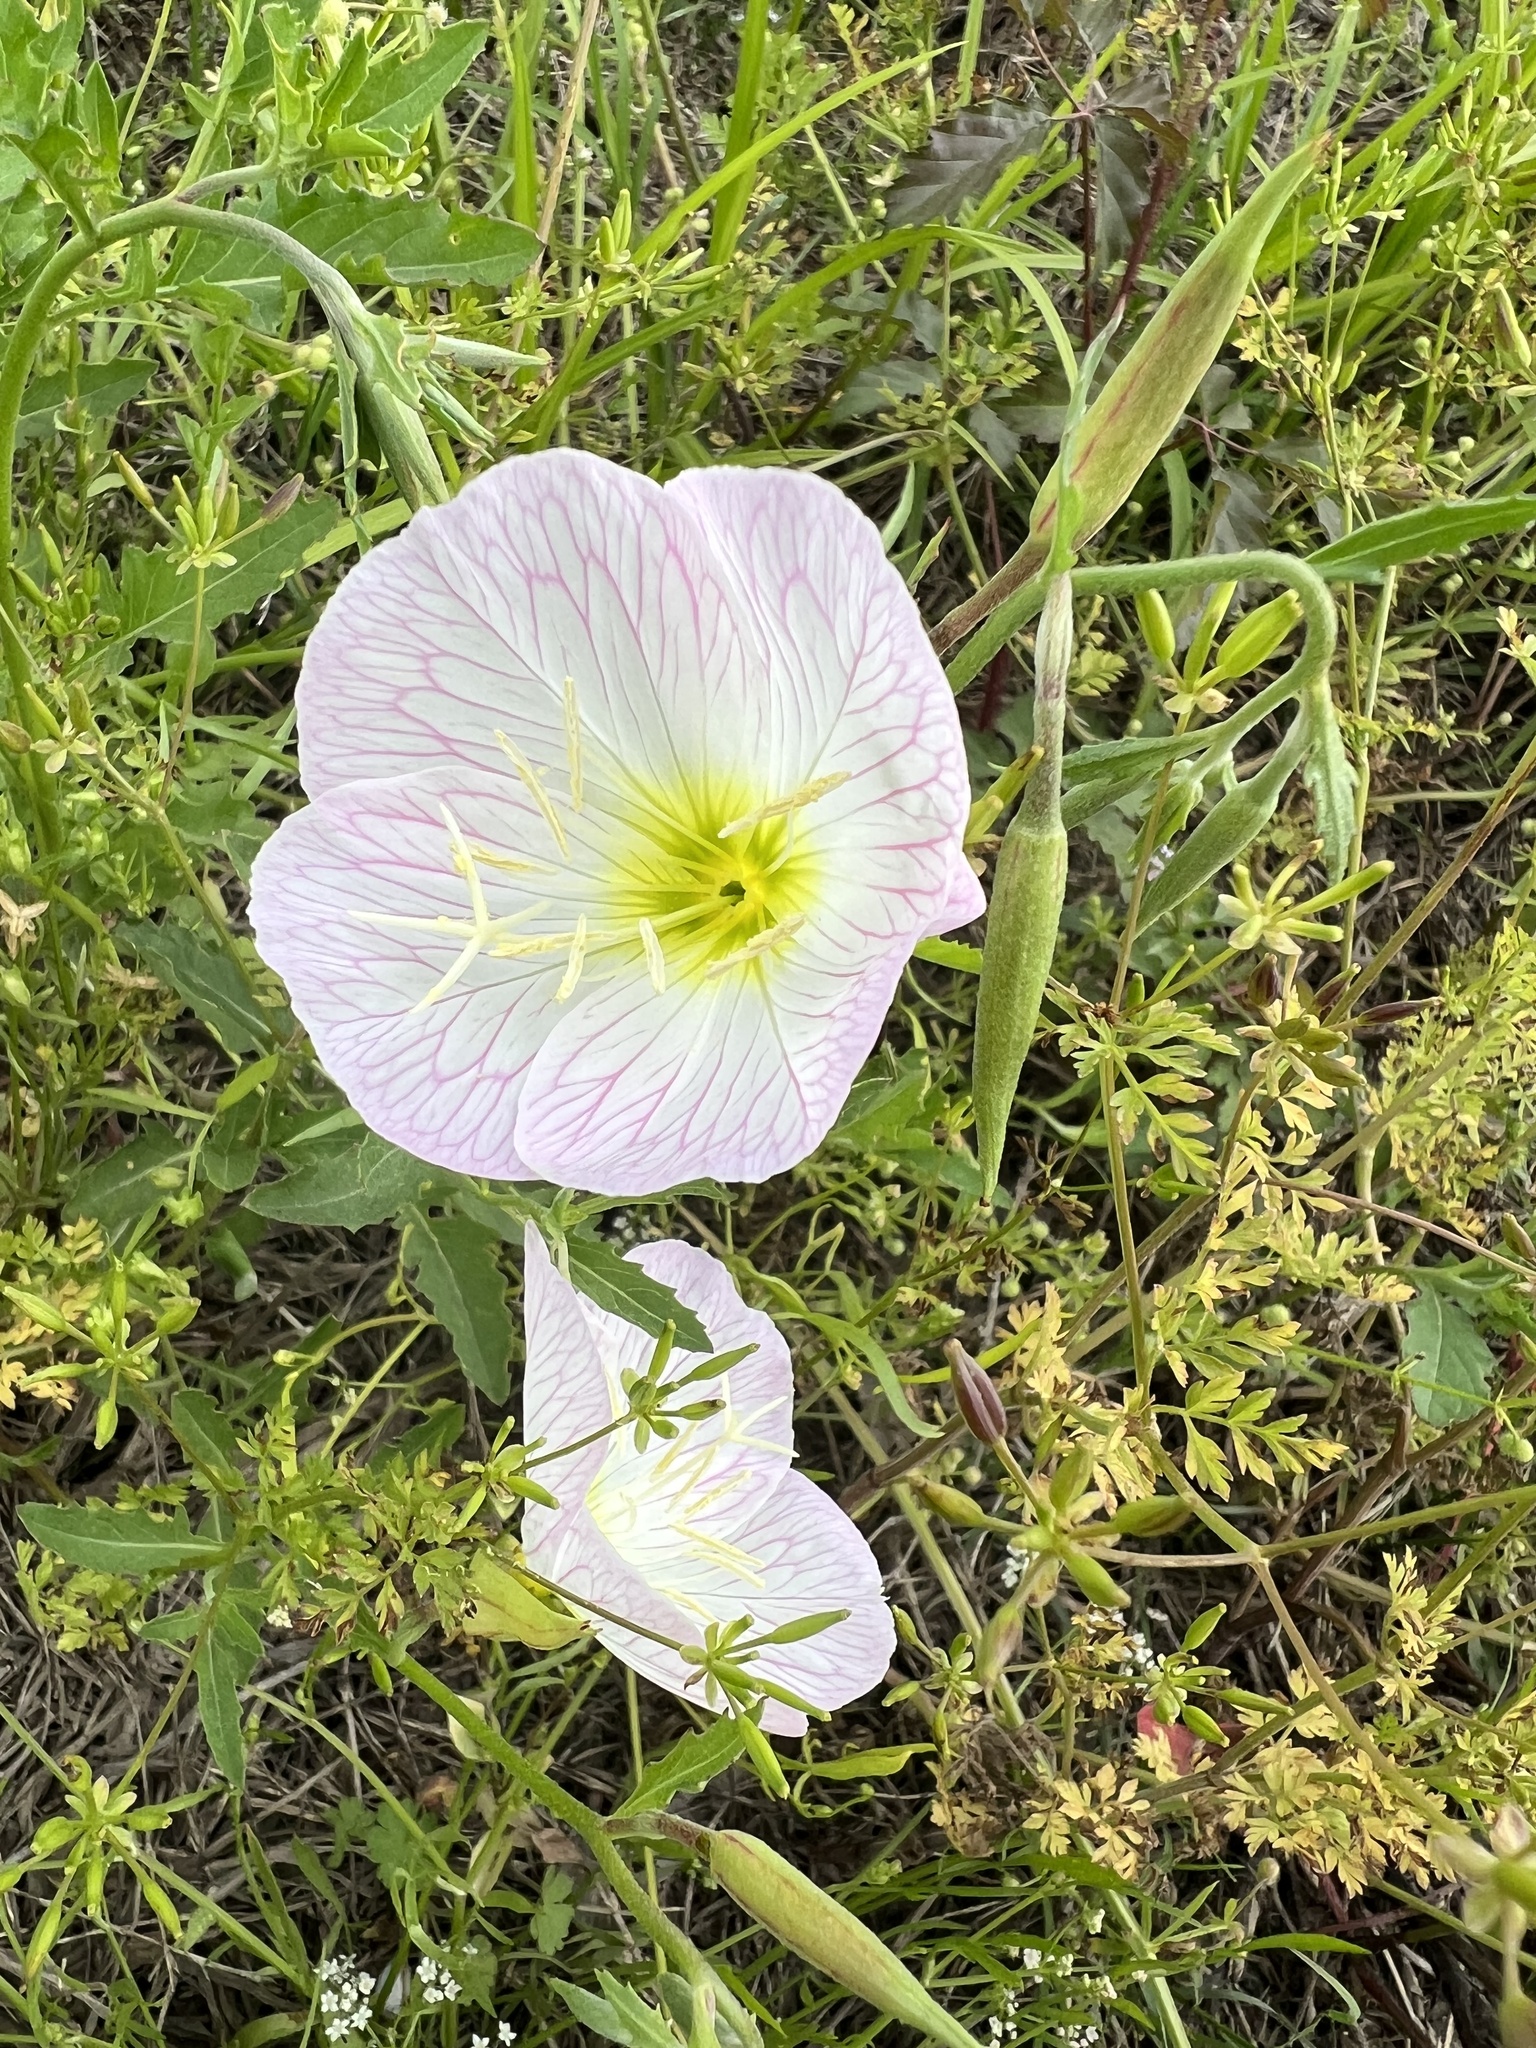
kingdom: Plantae
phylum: Tracheophyta
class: Magnoliopsida
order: Myrtales
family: Onagraceae
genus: Oenothera
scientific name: Oenothera speciosa
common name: White evening-primrose
